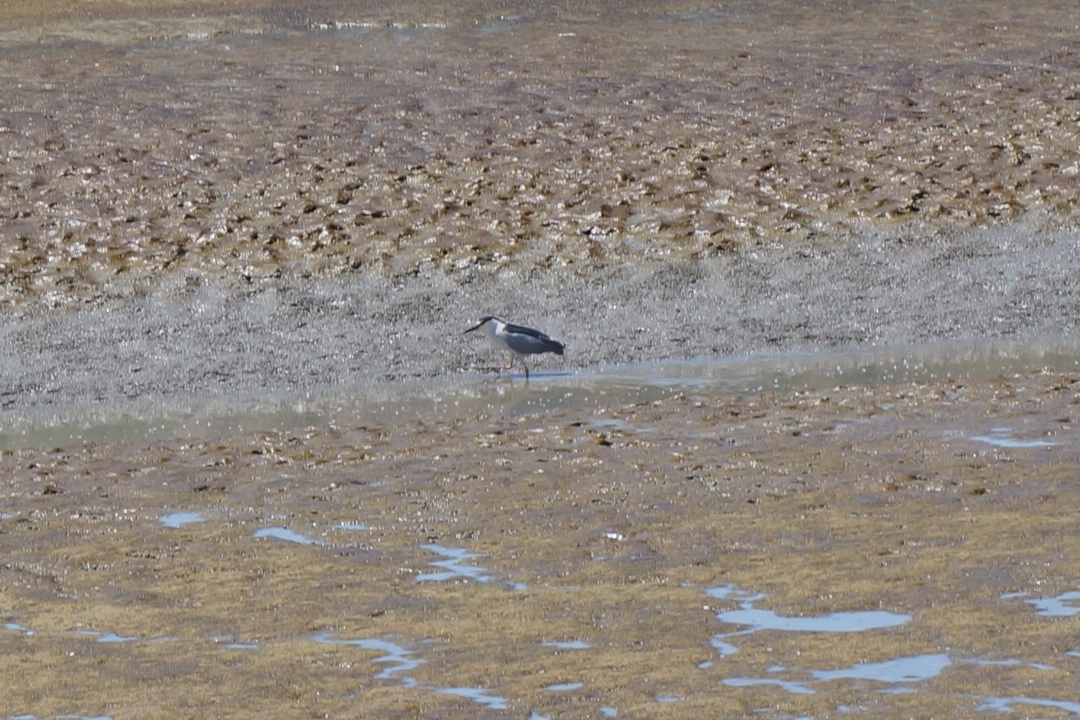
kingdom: Animalia
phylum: Chordata
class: Aves
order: Pelecaniformes
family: Ardeidae
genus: Nycticorax
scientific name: Nycticorax nycticorax
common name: Black-crowned night heron
